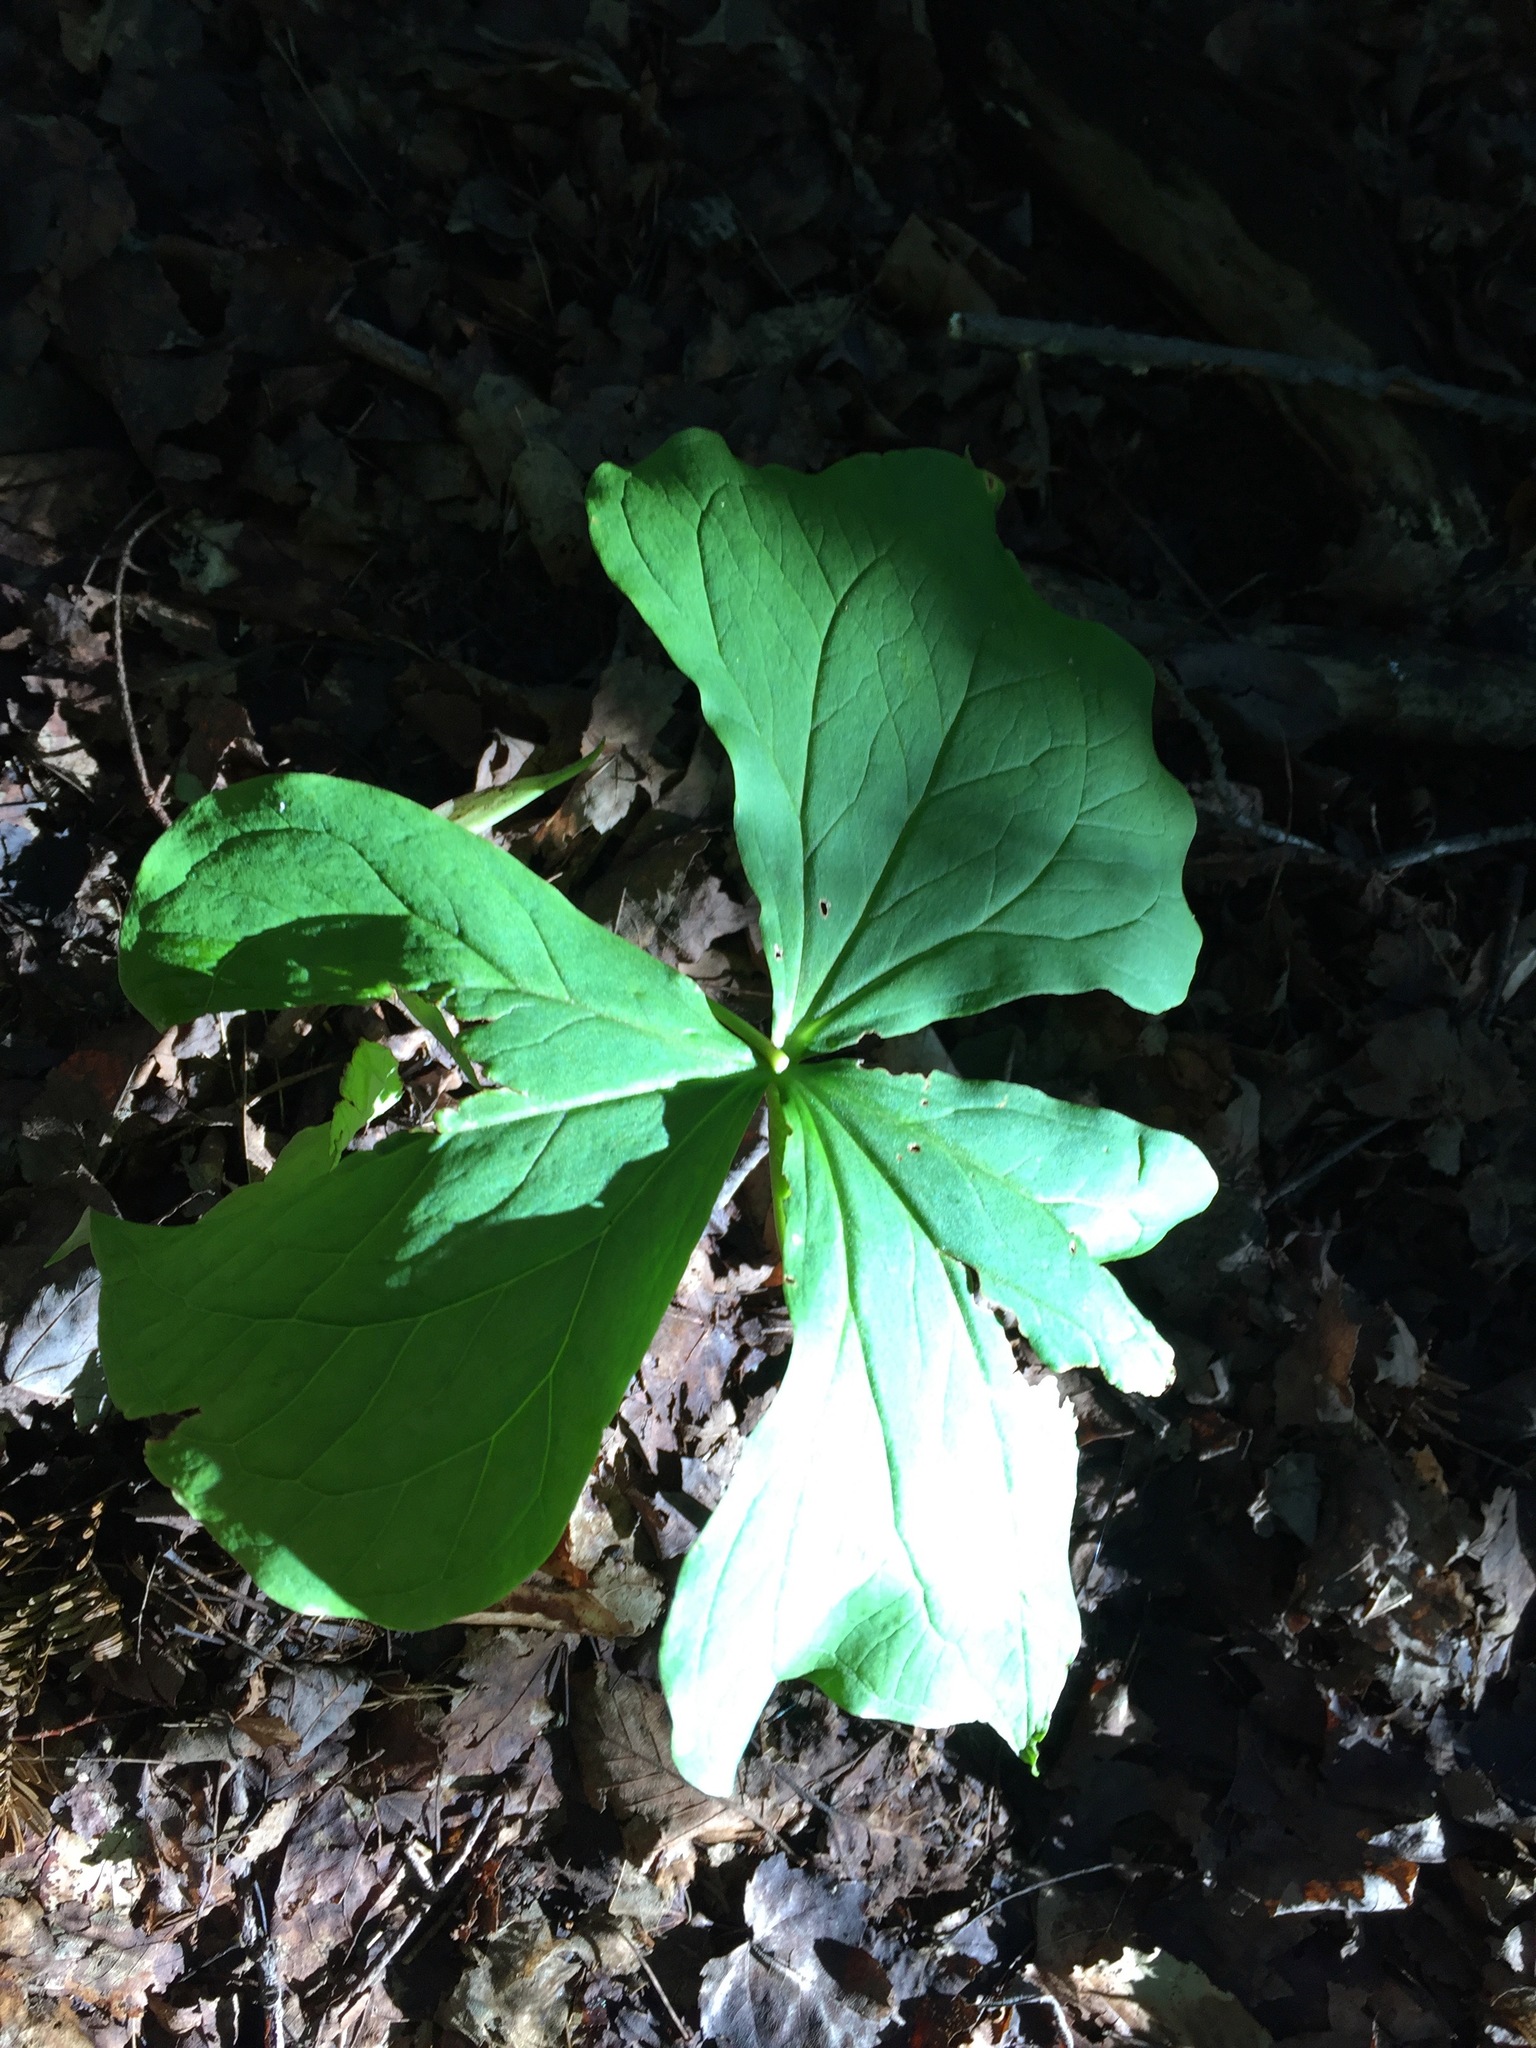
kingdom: Plantae
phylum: Tracheophyta
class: Liliopsida
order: Liliales
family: Melanthiaceae
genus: Trillium
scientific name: Trillium erectum
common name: Purple trillium
